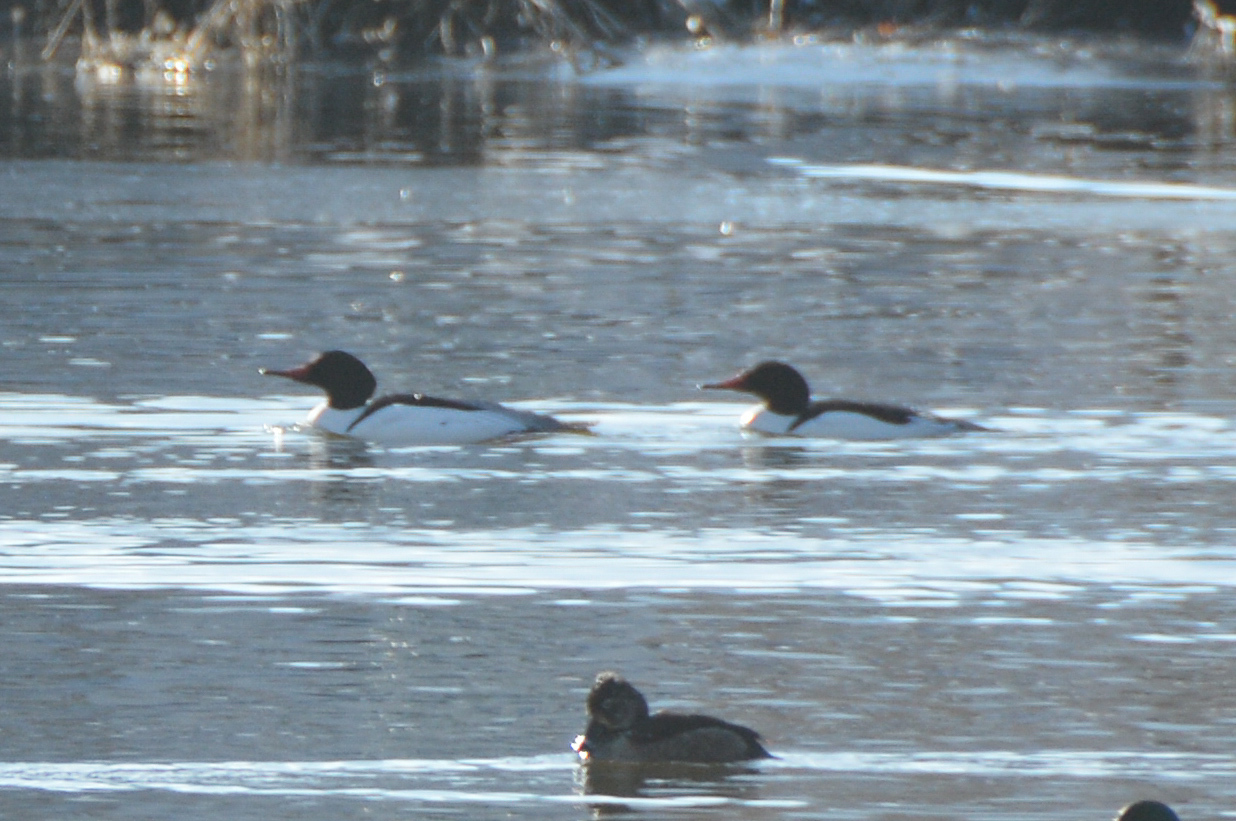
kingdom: Animalia
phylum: Chordata
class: Aves
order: Anseriformes
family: Anatidae
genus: Mergus
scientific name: Mergus merganser
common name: Common merganser
